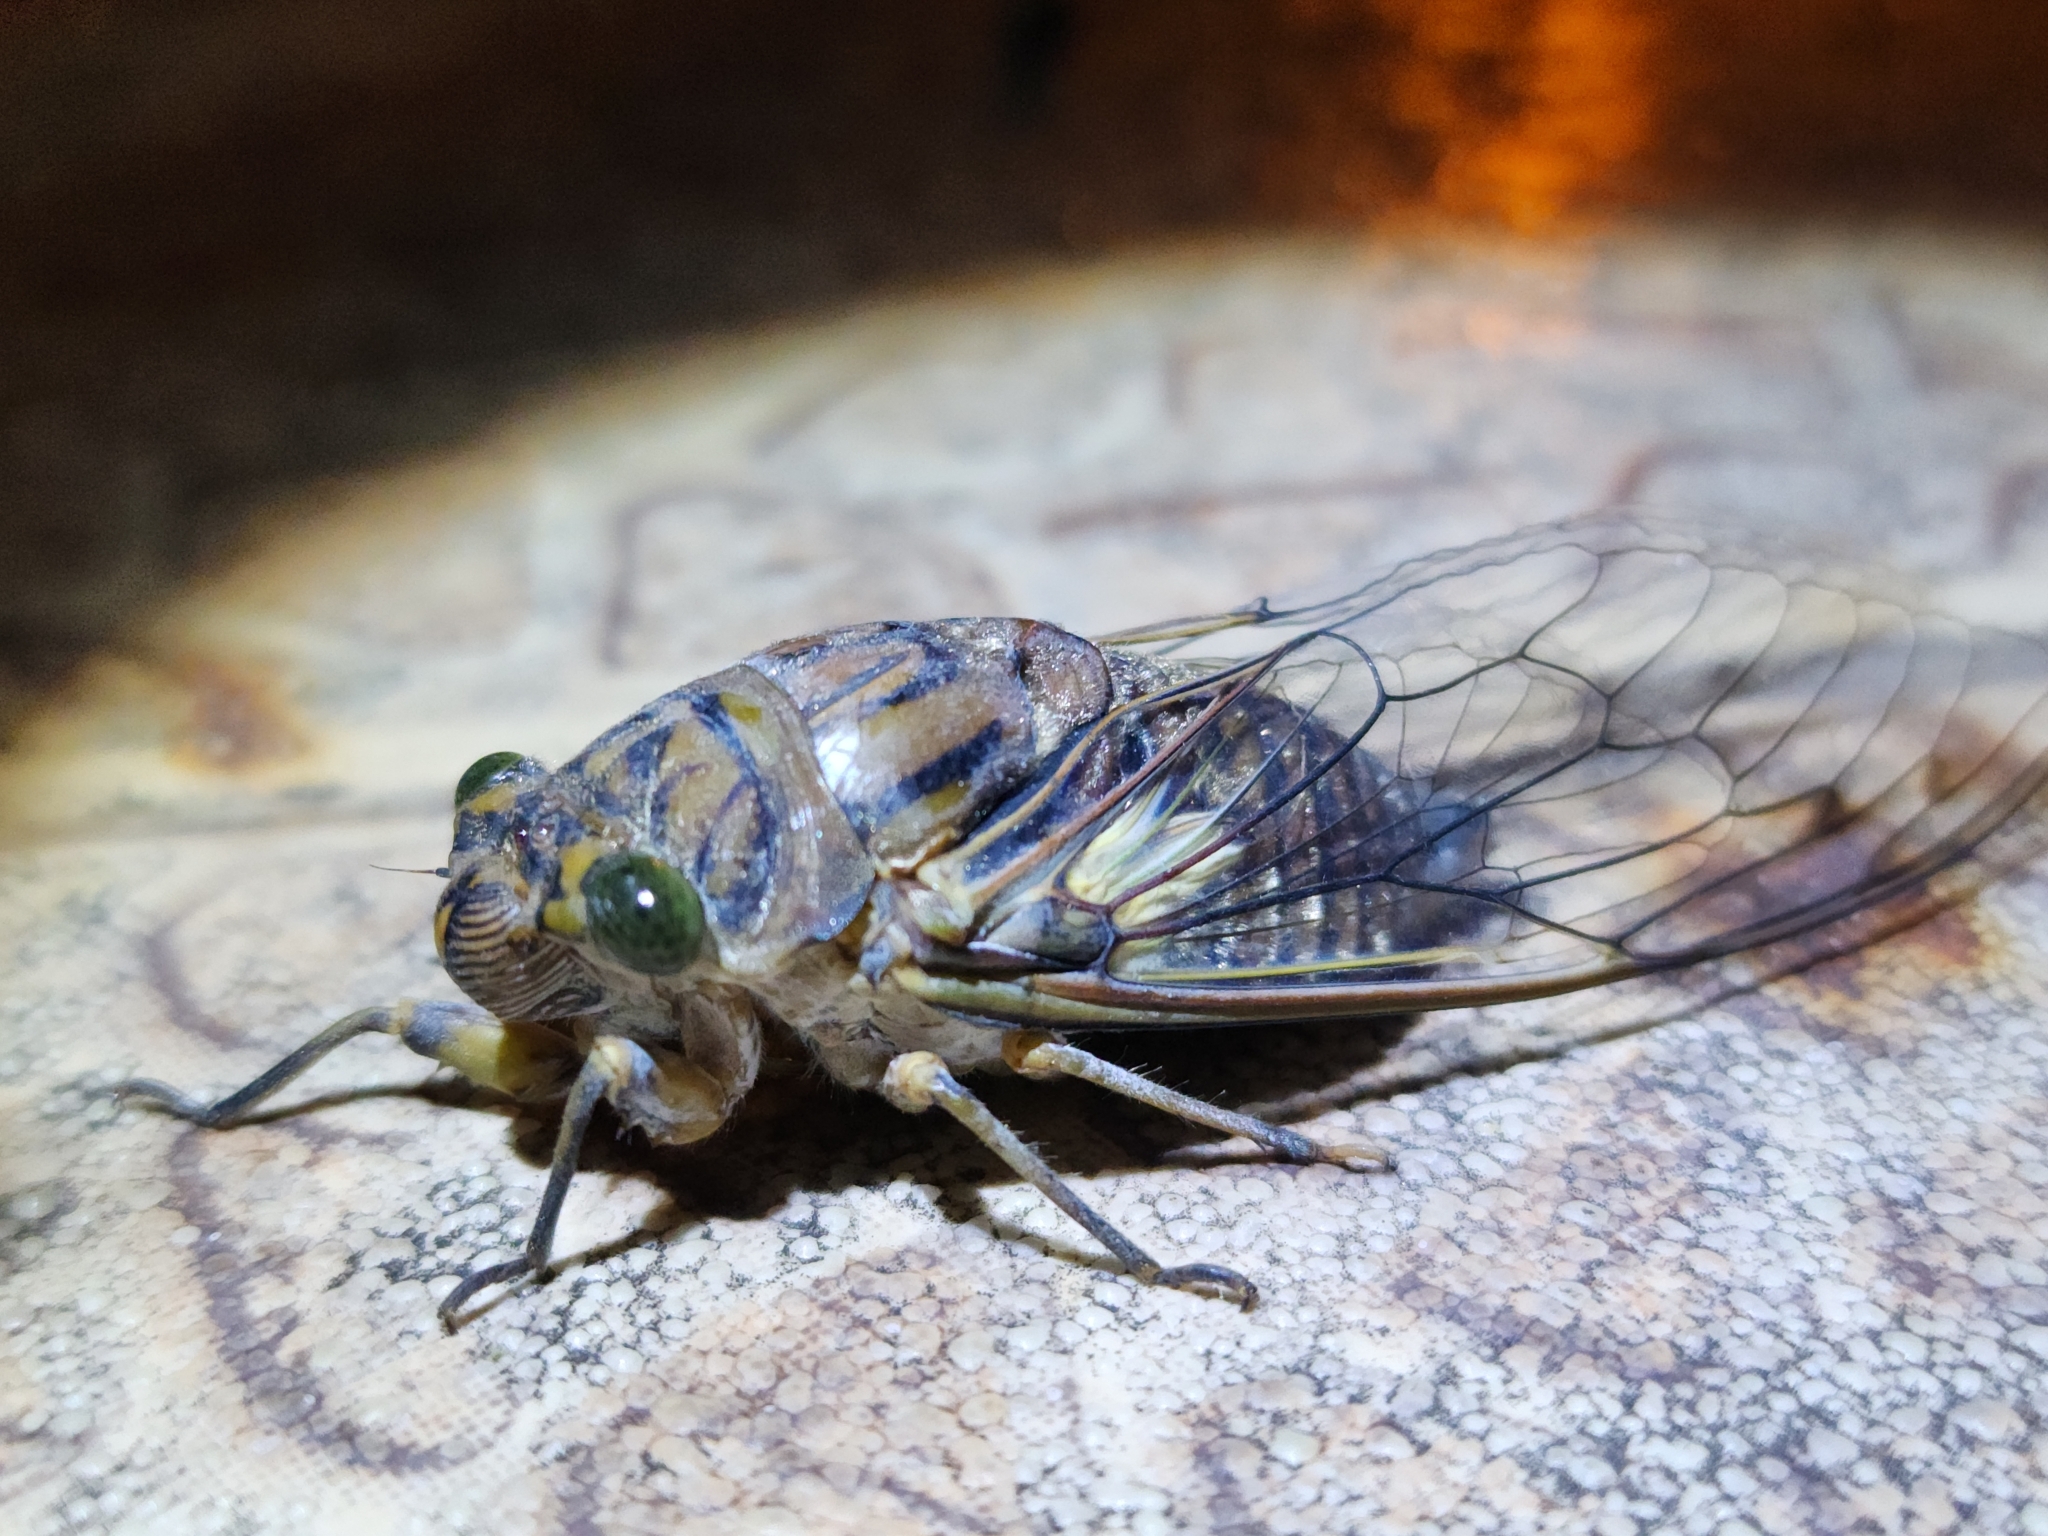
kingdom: Animalia
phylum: Arthropoda
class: Insecta
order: Hemiptera
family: Cicadidae
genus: Quesada
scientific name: Quesada gigas
